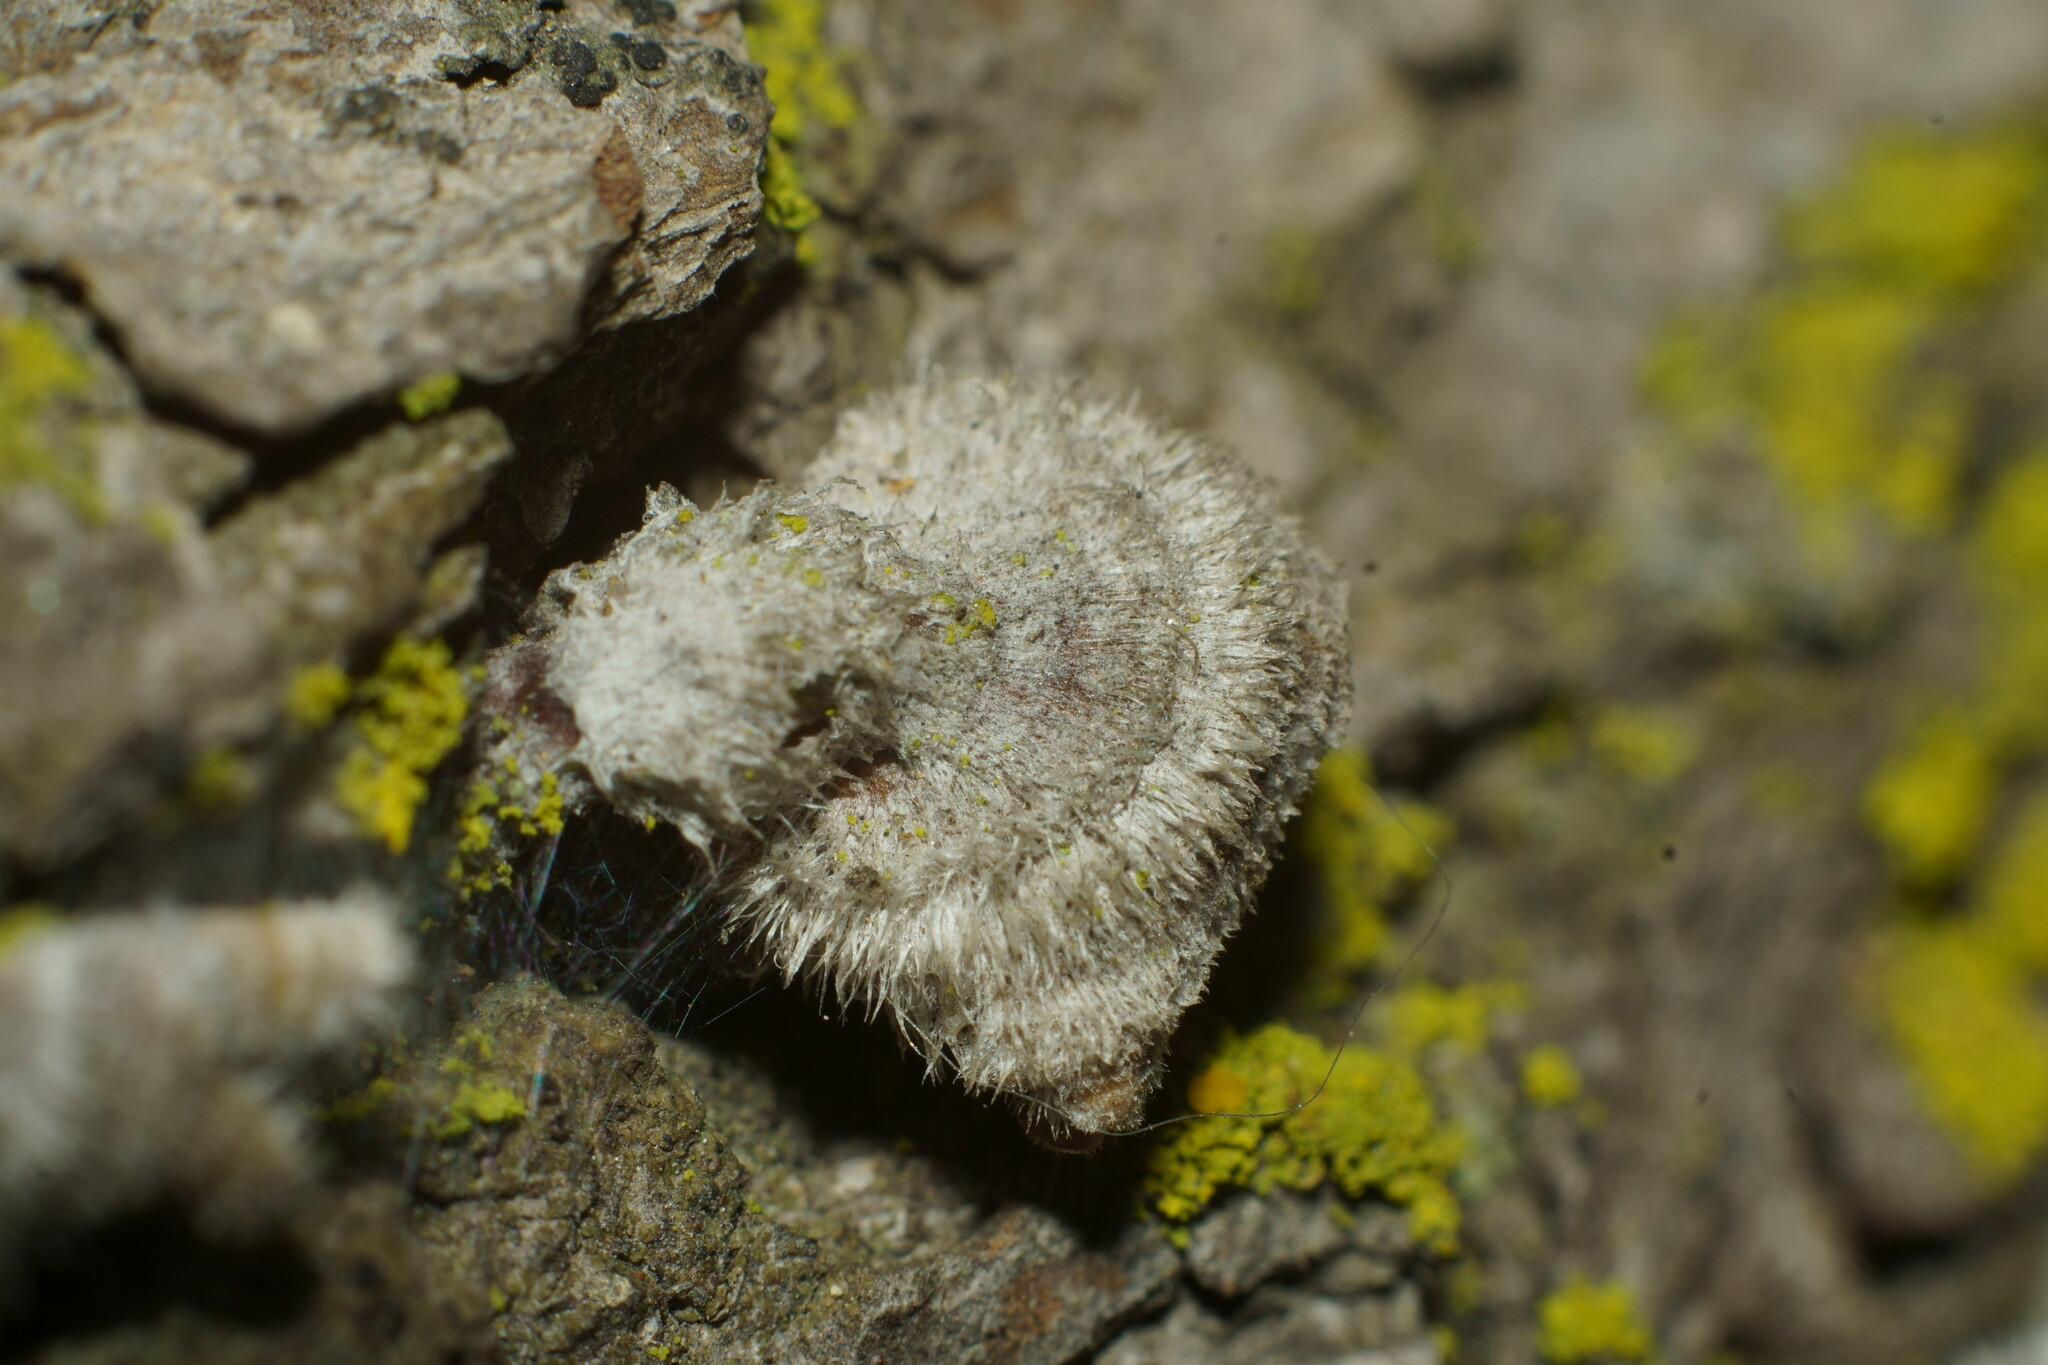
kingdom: Fungi
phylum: Basidiomycota
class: Agaricomycetes
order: Russulales
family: Stereaceae
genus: Stereum
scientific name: Stereum ochraceoflavum
